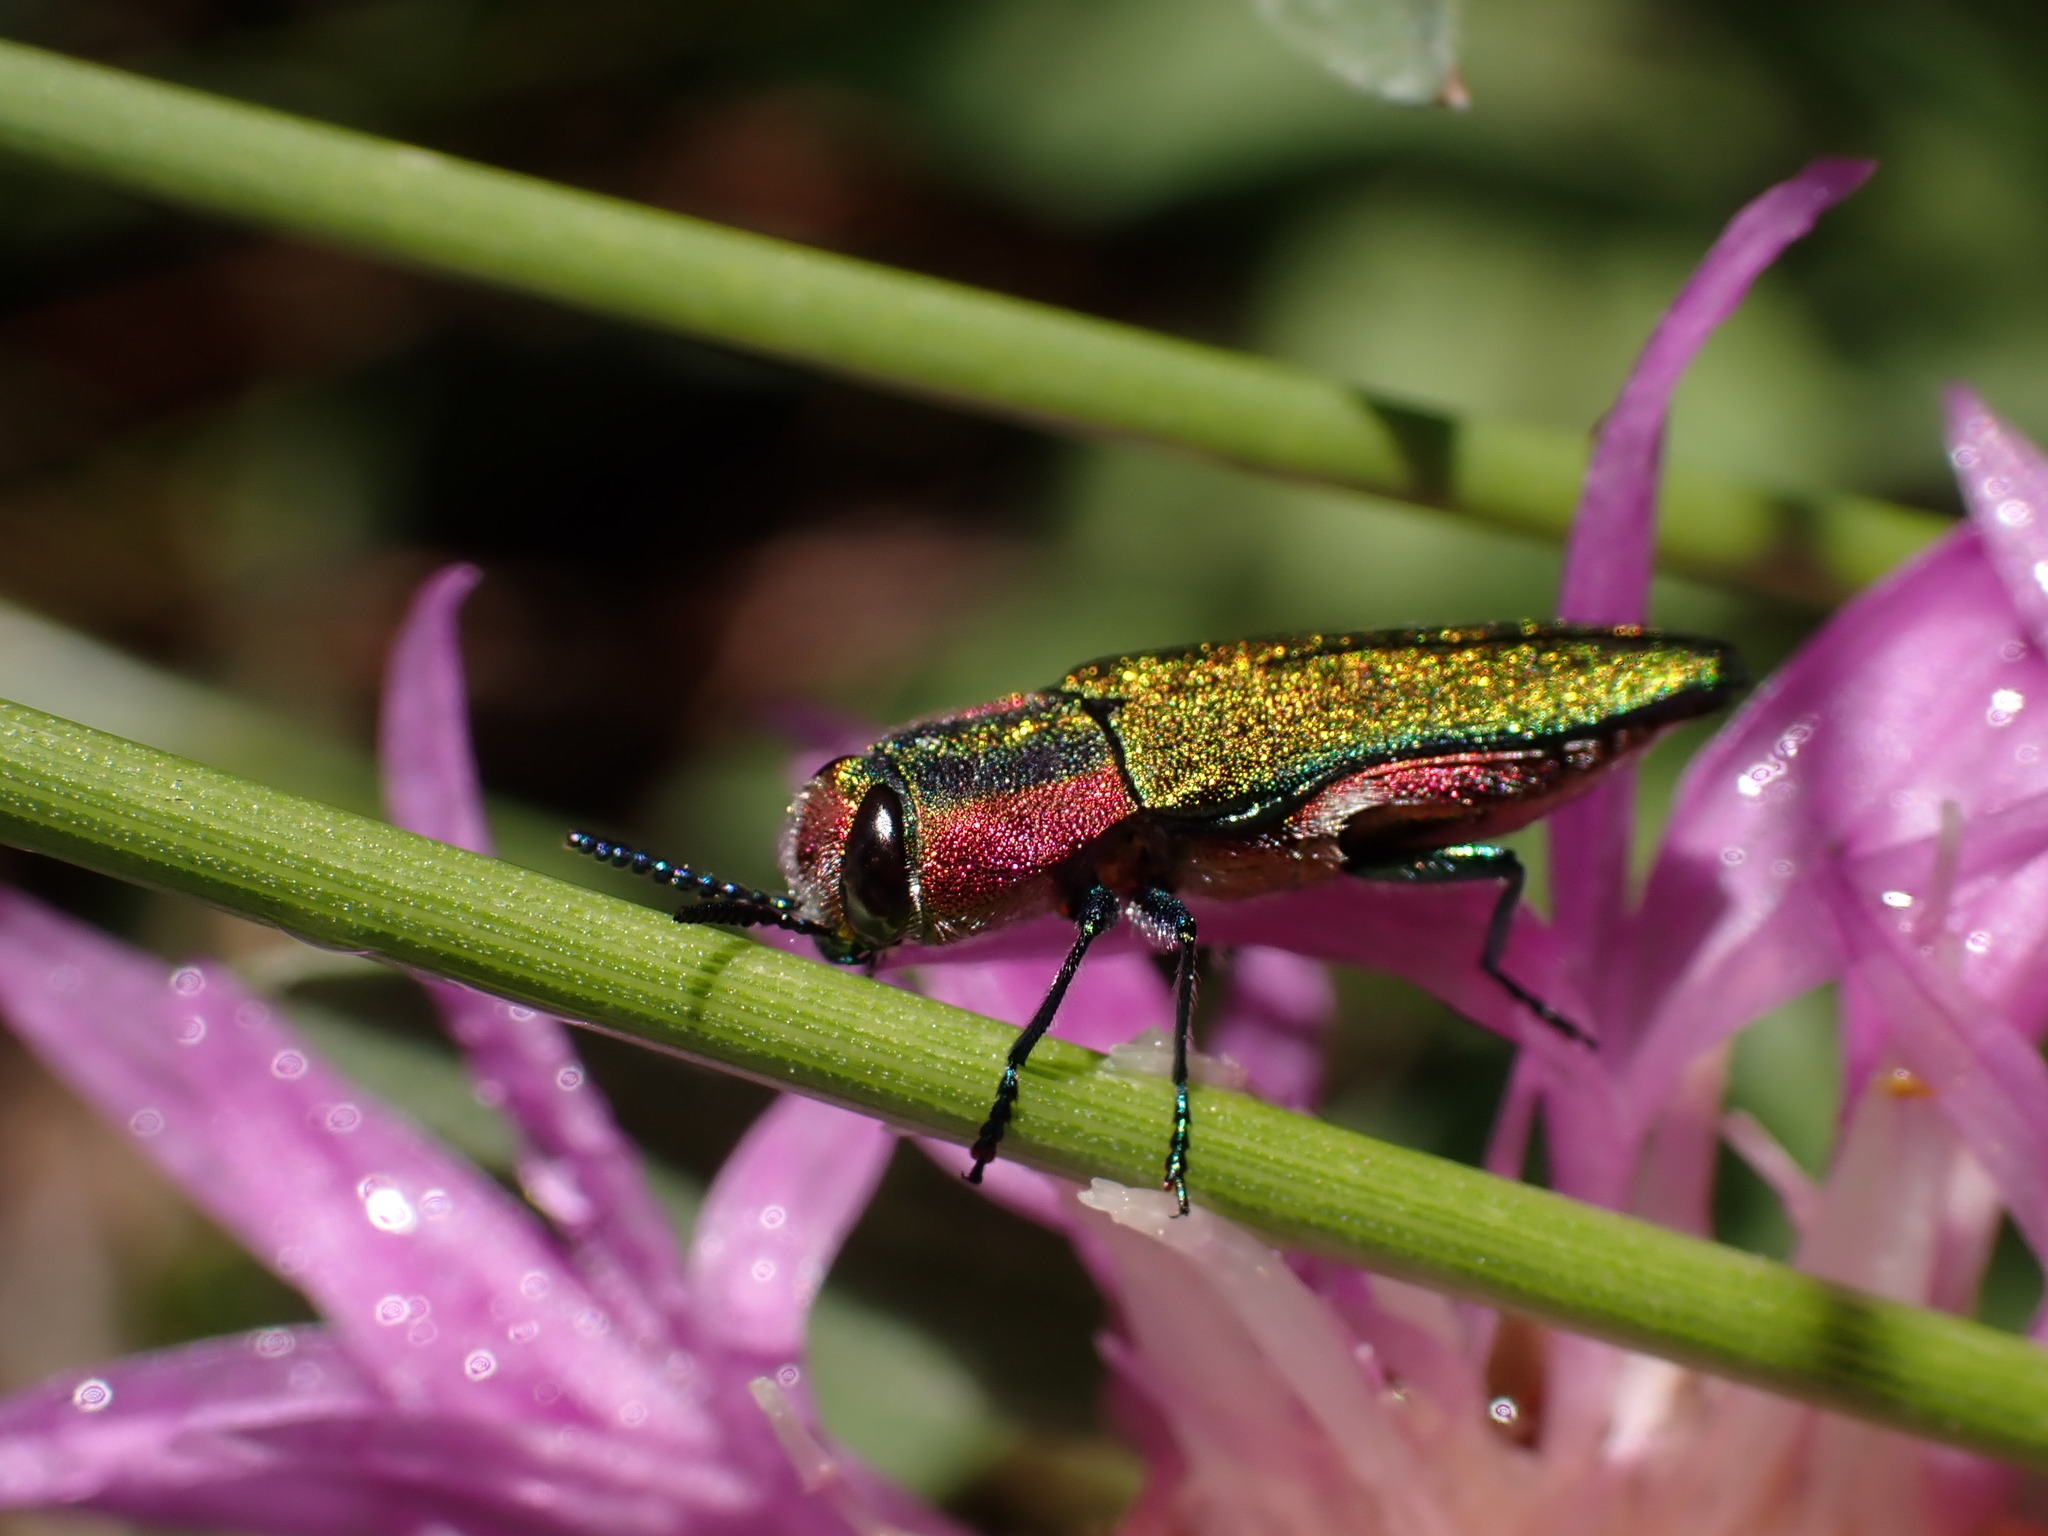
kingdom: Animalia
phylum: Arthropoda
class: Insecta
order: Coleoptera
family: Buprestidae
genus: Anthaxia
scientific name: Anthaxia hungarica
